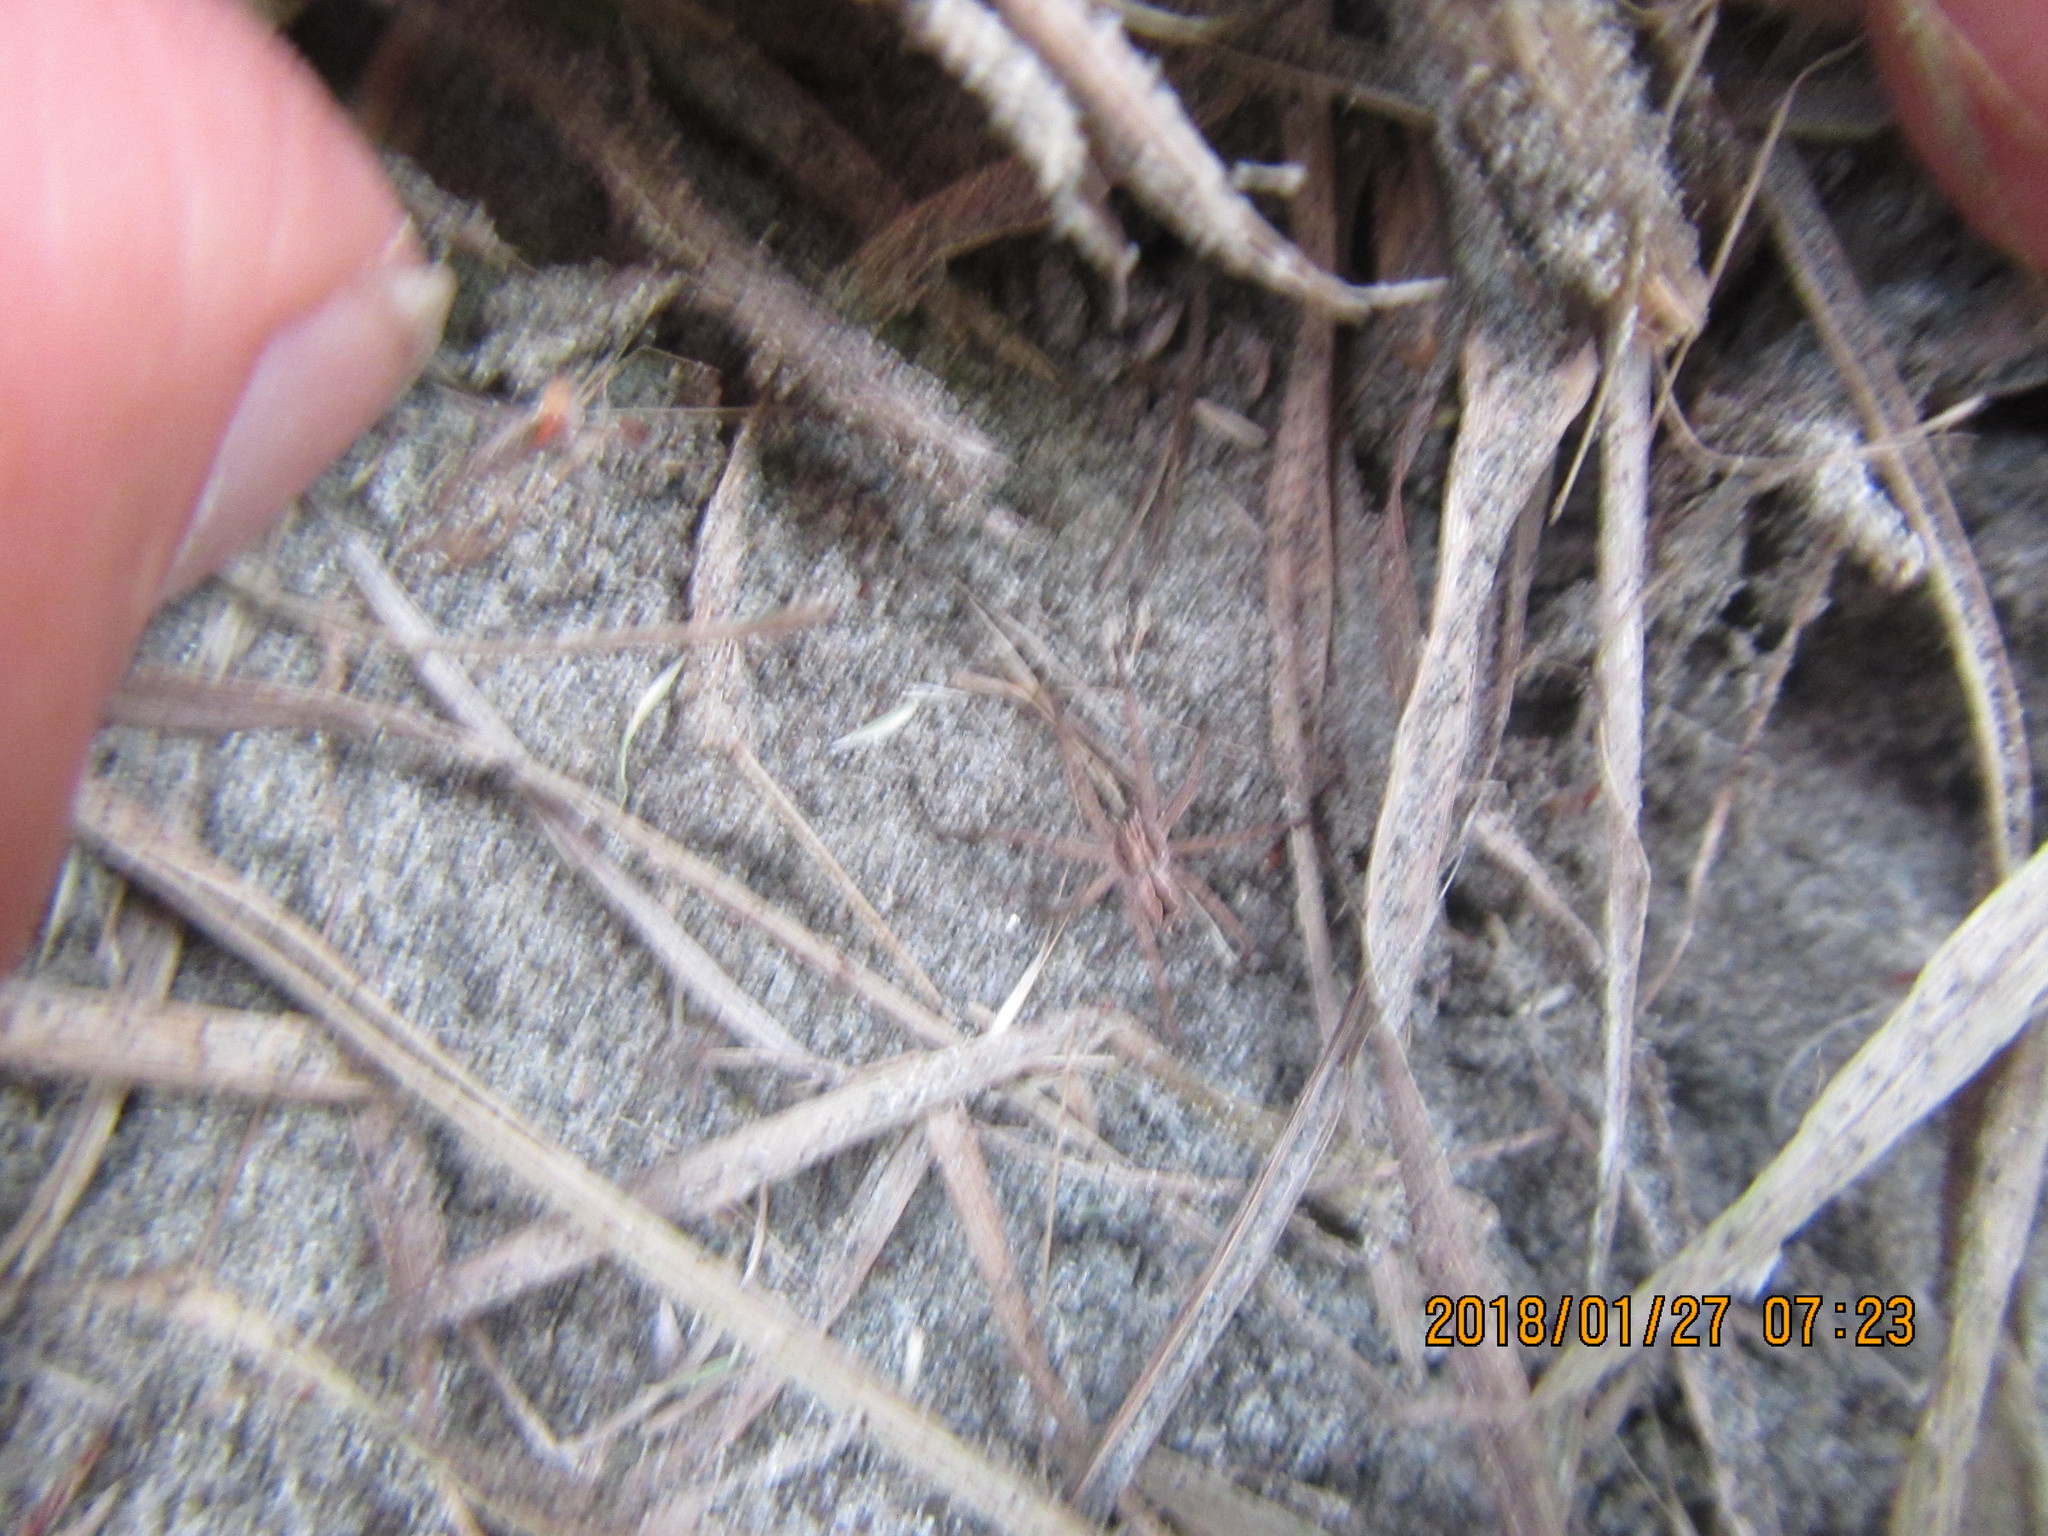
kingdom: Plantae
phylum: Tracheophyta
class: Liliopsida
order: Poales
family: Poaceae
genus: Lagurus
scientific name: Lagurus ovatus
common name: Hare's-tail
